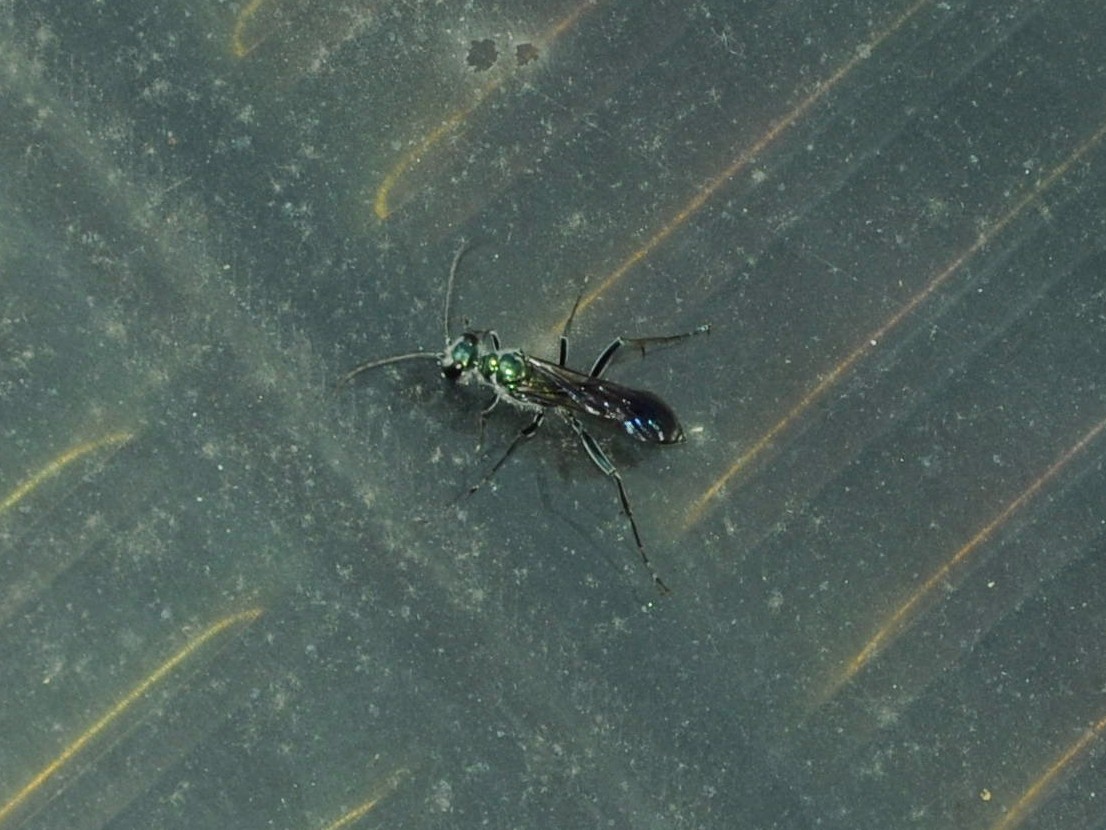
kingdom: Animalia
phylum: Arthropoda
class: Insecta
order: Hymenoptera
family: Sphecidae
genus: Chalybion
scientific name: Chalybion bengalense
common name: Mud dauber
